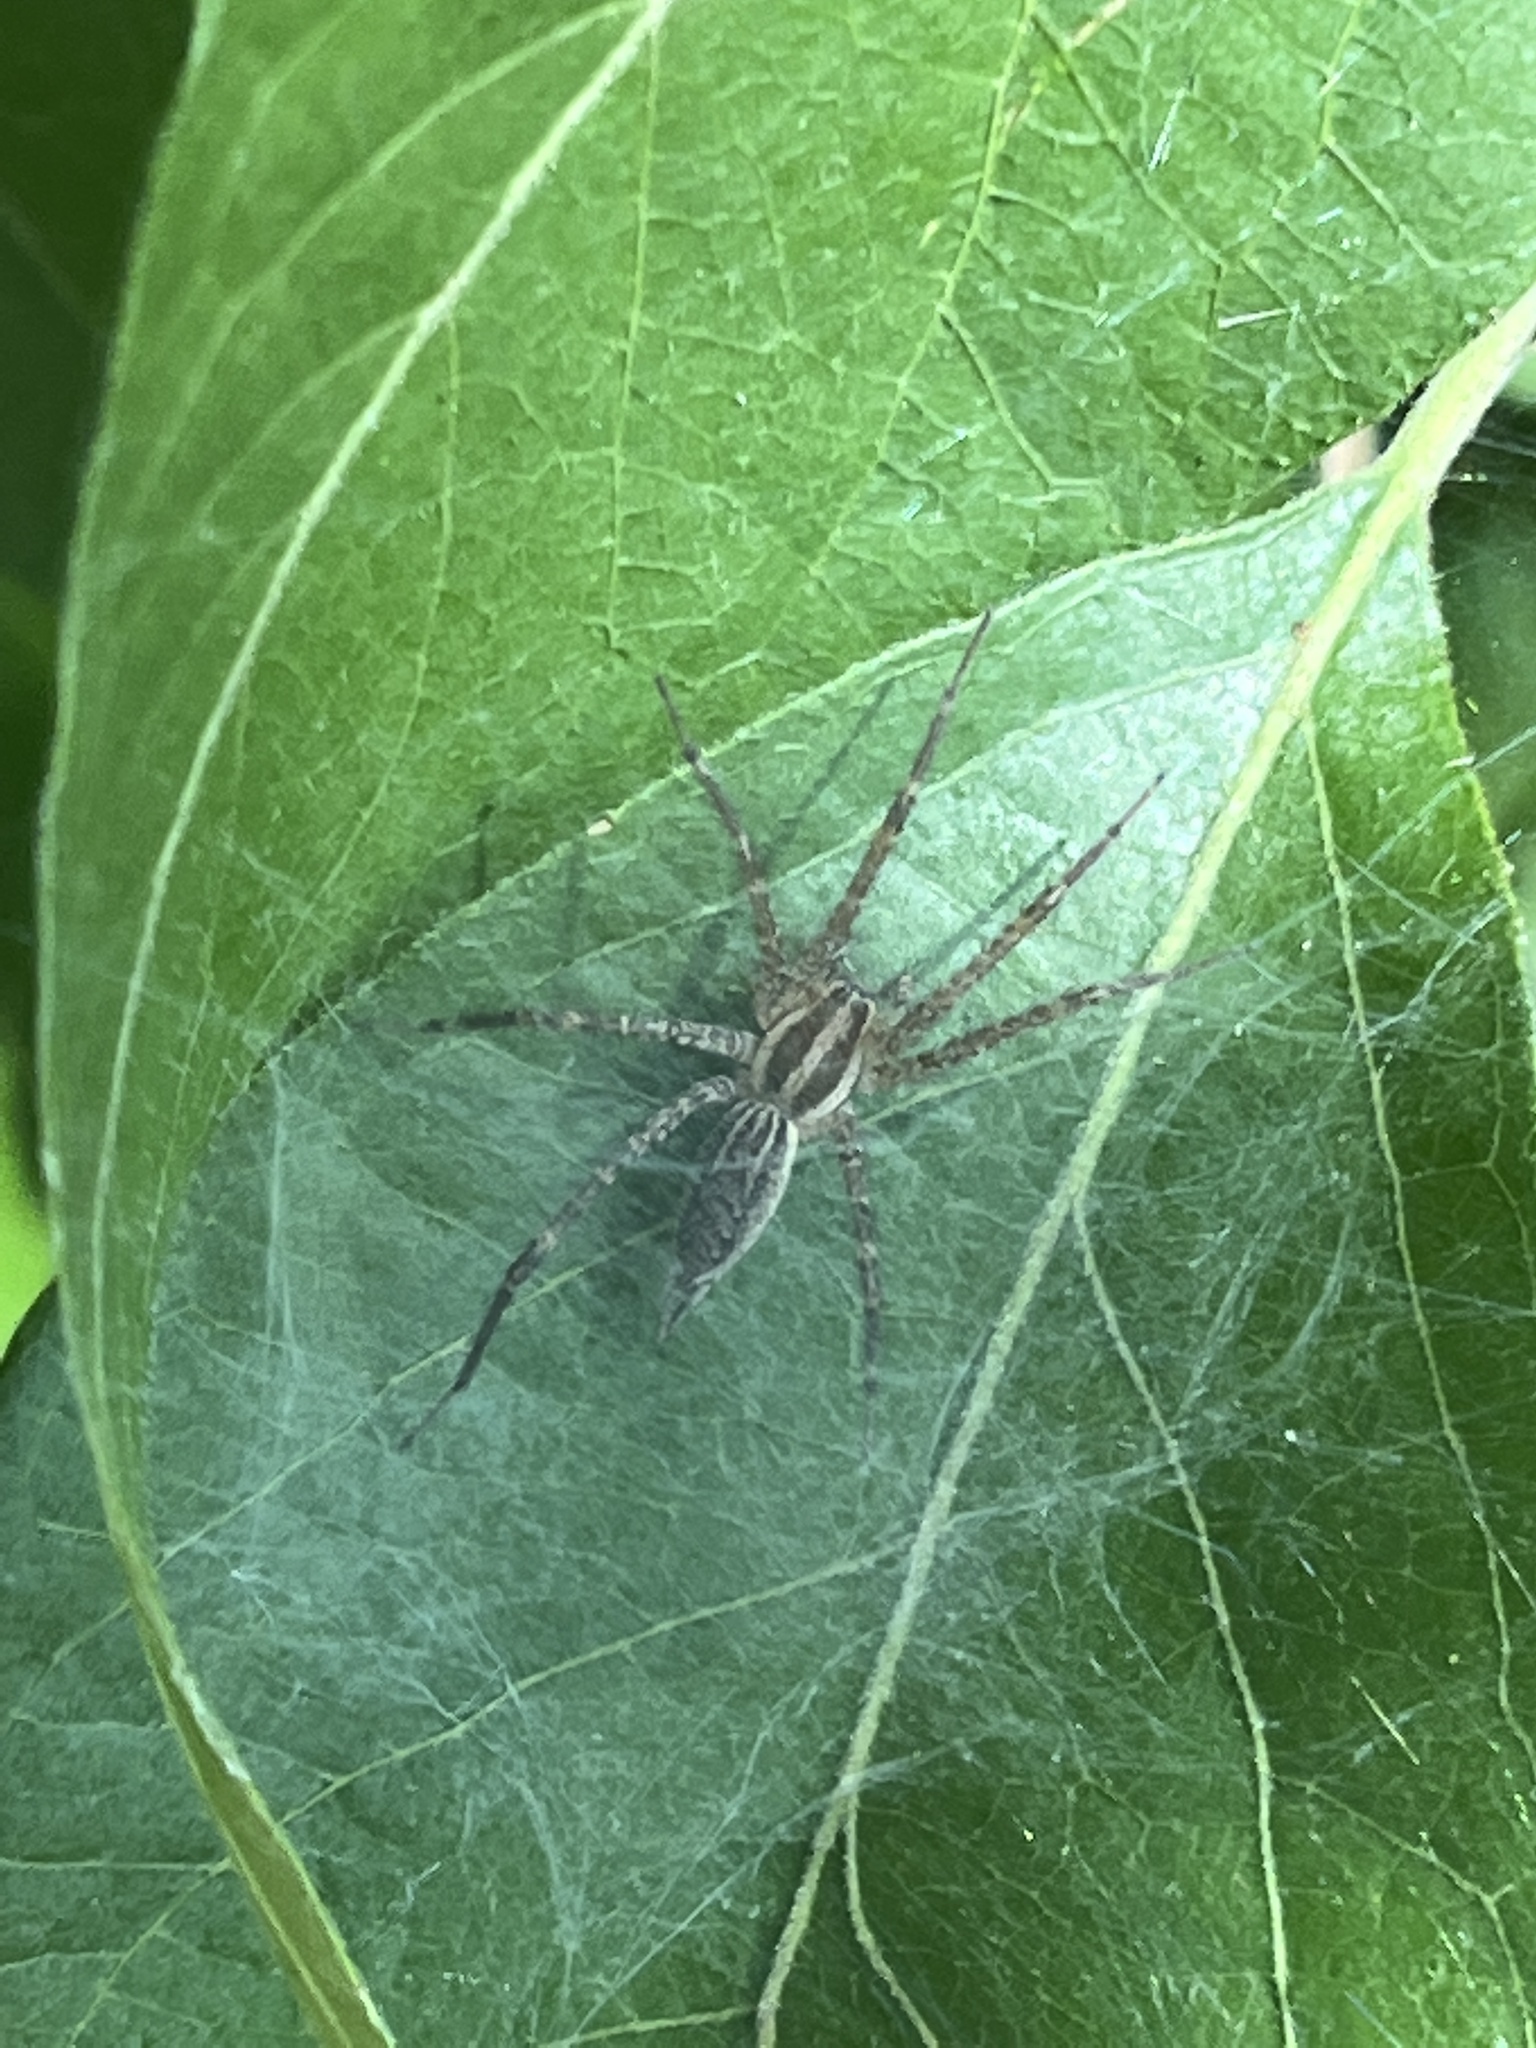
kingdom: Animalia
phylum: Arthropoda
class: Arachnida
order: Araneae
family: Agelenidae
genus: Agelenopsis
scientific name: Agelenopsis
